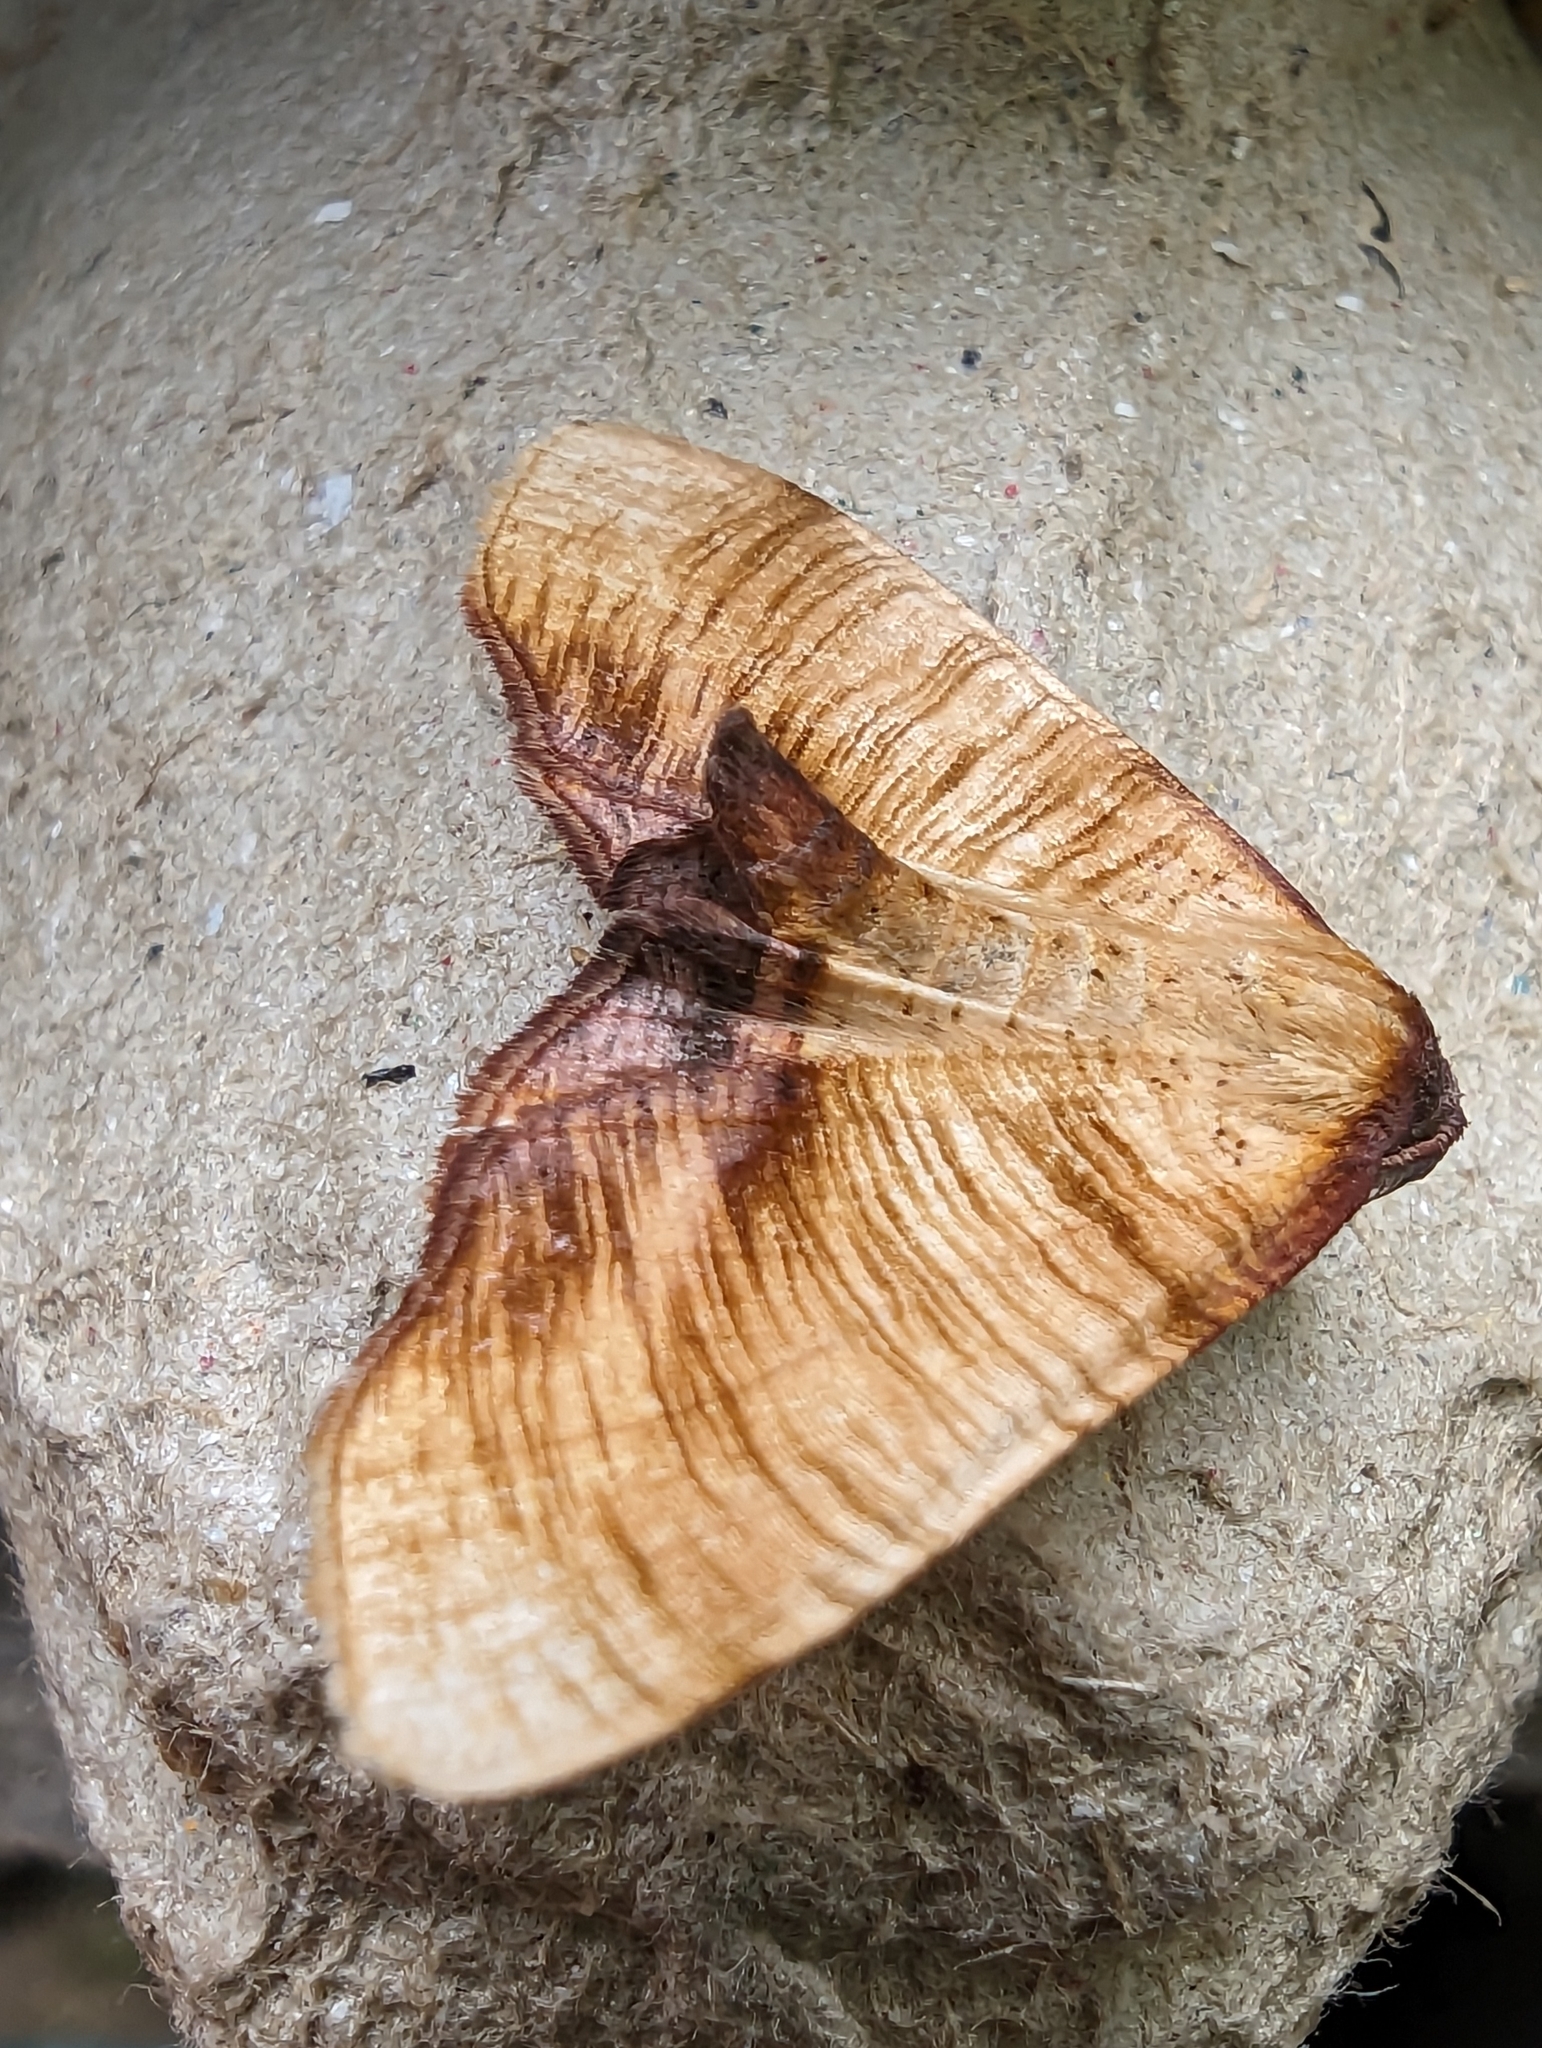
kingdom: Animalia
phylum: Arthropoda
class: Insecta
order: Lepidoptera
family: Geometridae
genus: Plagodis
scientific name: Plagodis dolabraria
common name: Scorched wing
